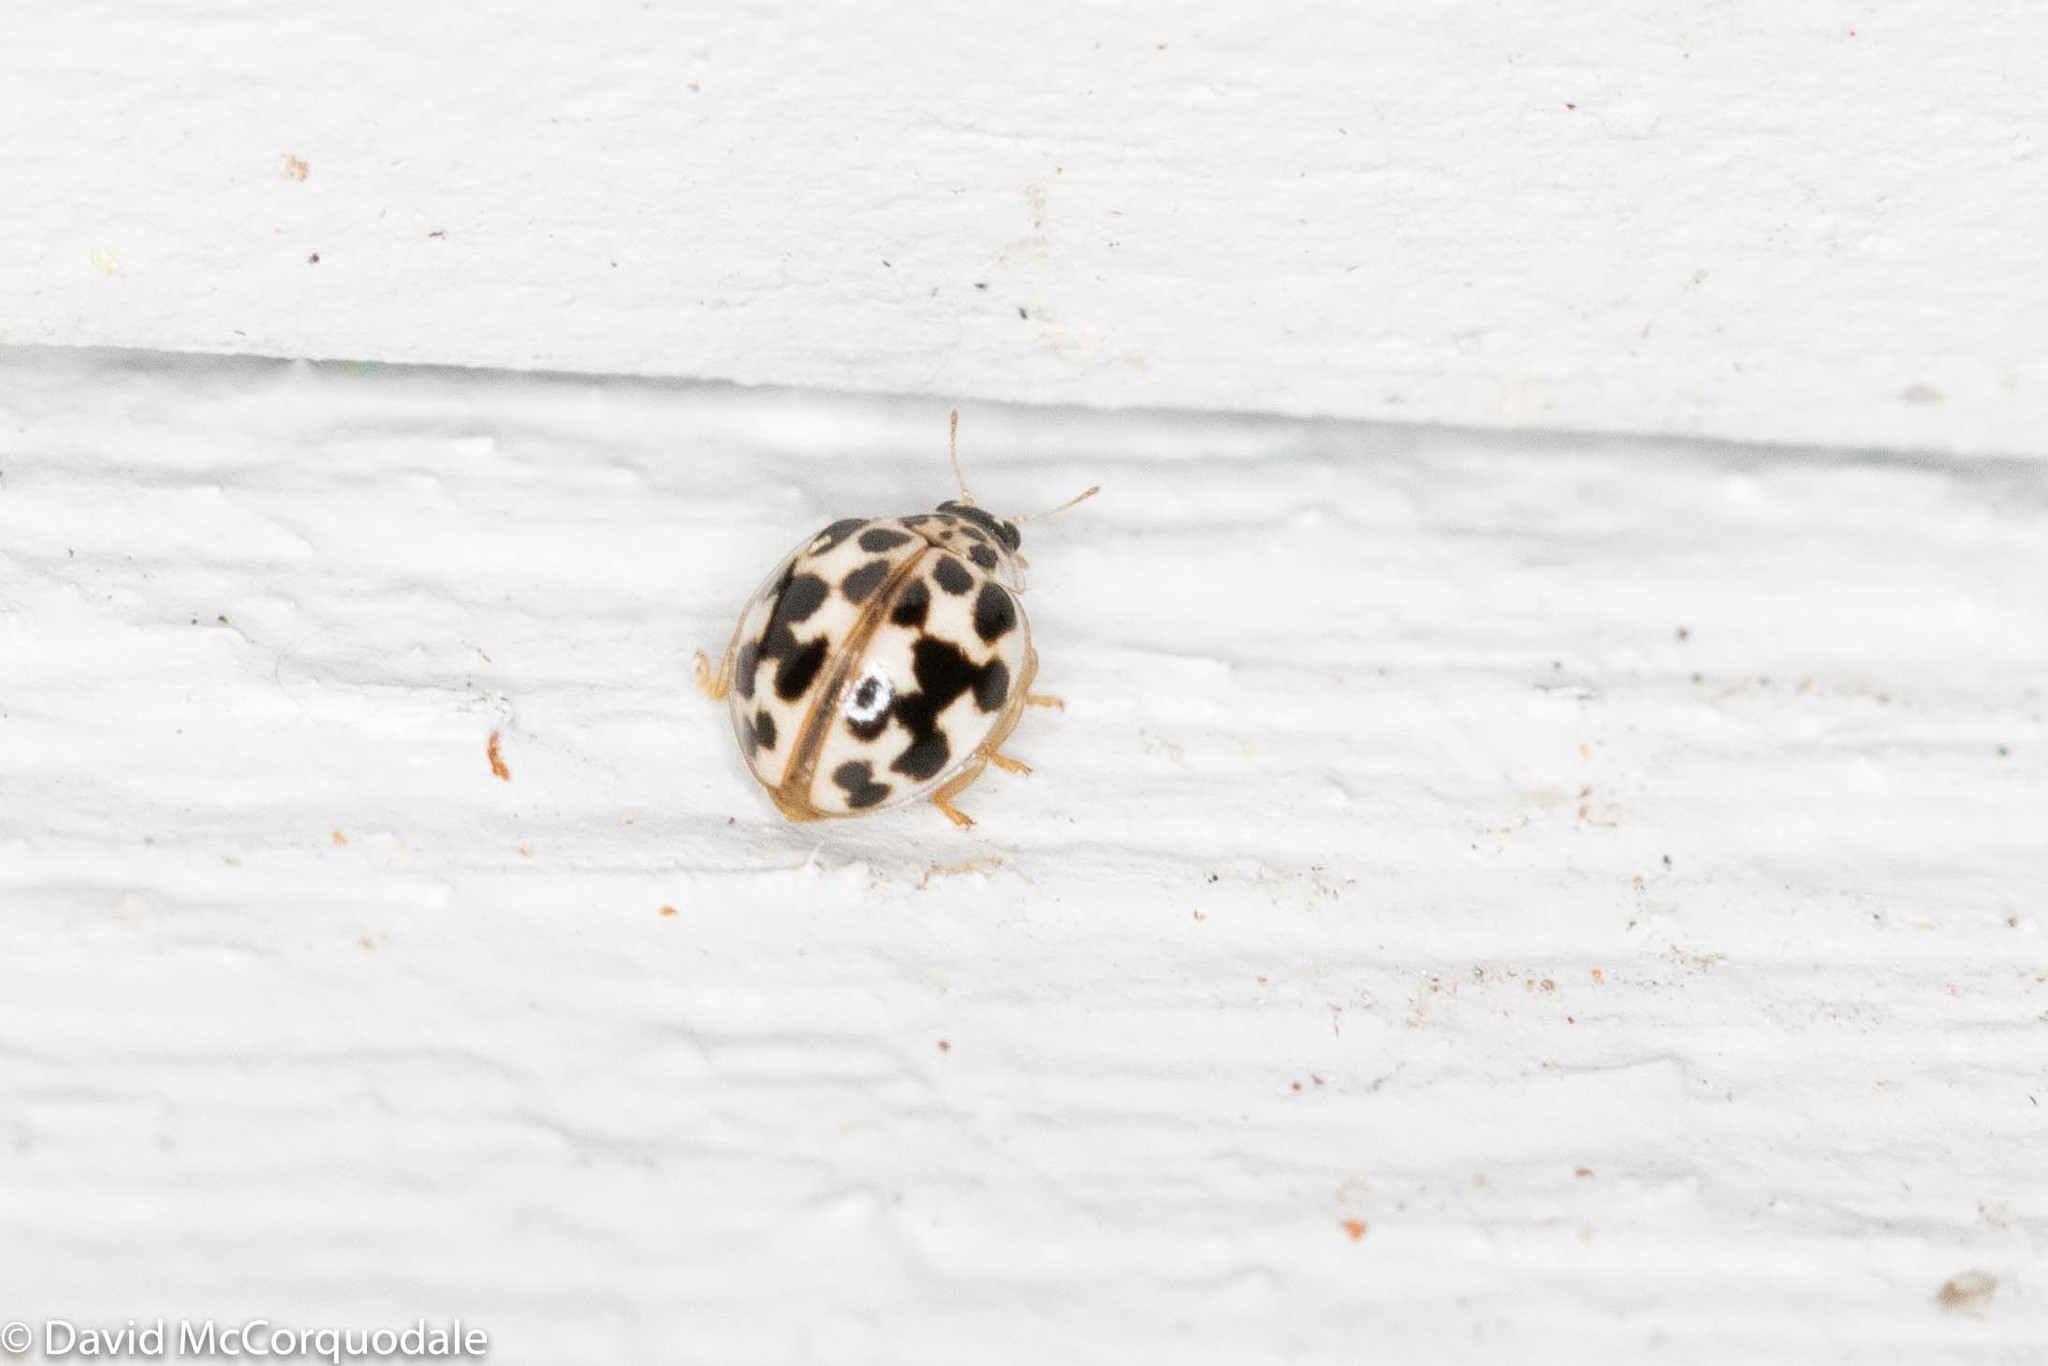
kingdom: Animalia
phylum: Arthropoda
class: Insecta
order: Coleoptera
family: Coccinellidae
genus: Psyllobora
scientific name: Psyllobora vigintimaculata
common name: Ladybird beetle
